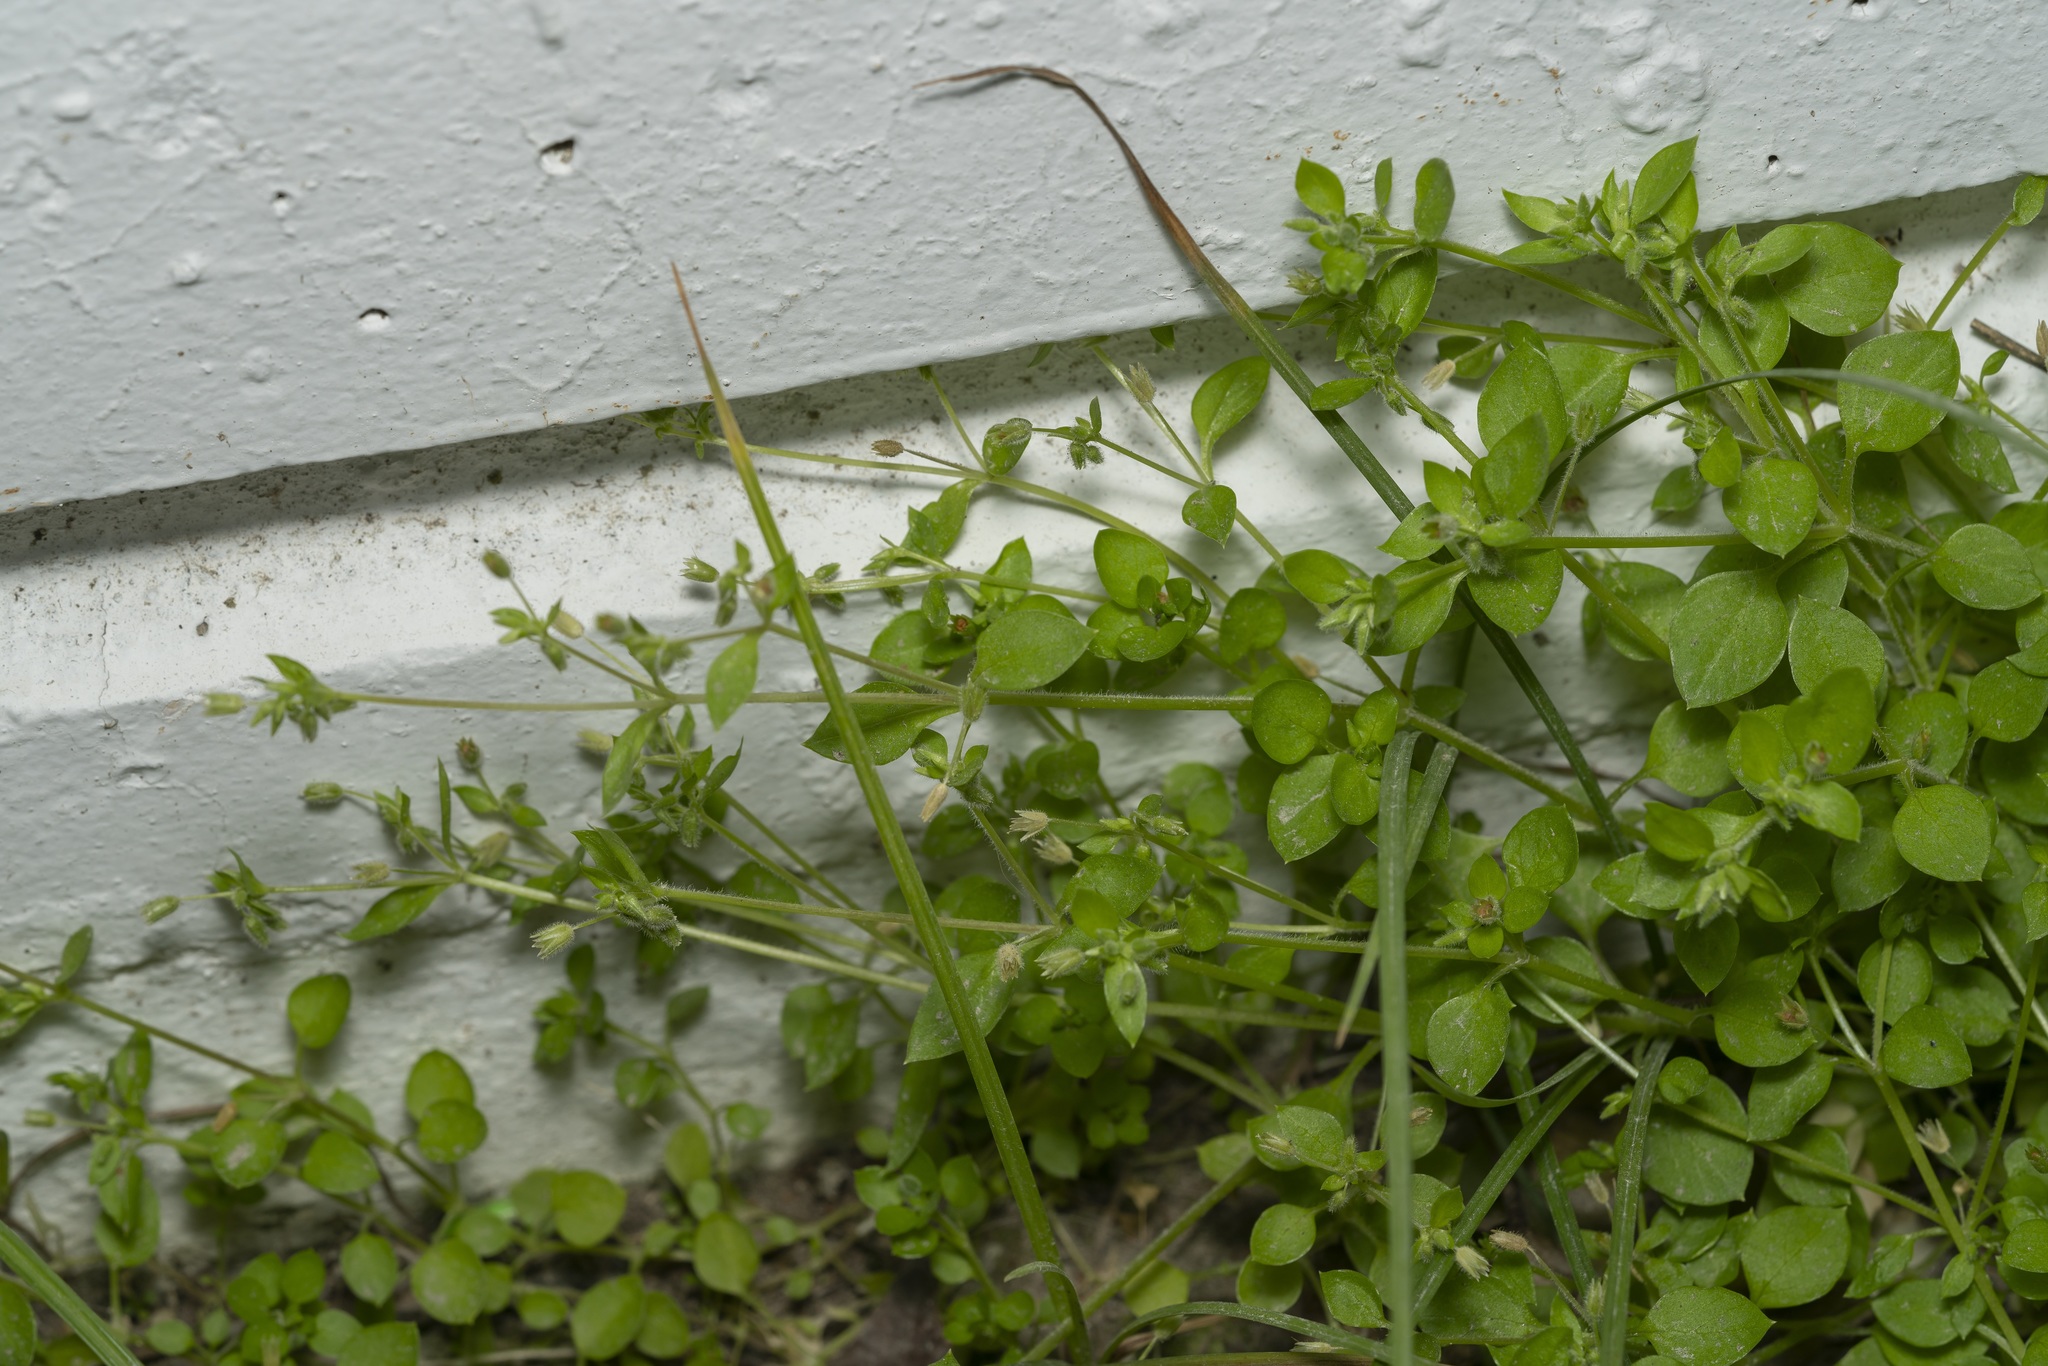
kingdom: Plantae
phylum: Tracheophyta
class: Magnoliopsida
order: Caryophyllales
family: Caryophyllaceae
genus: Stellaria
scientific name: Stellaria apetala
